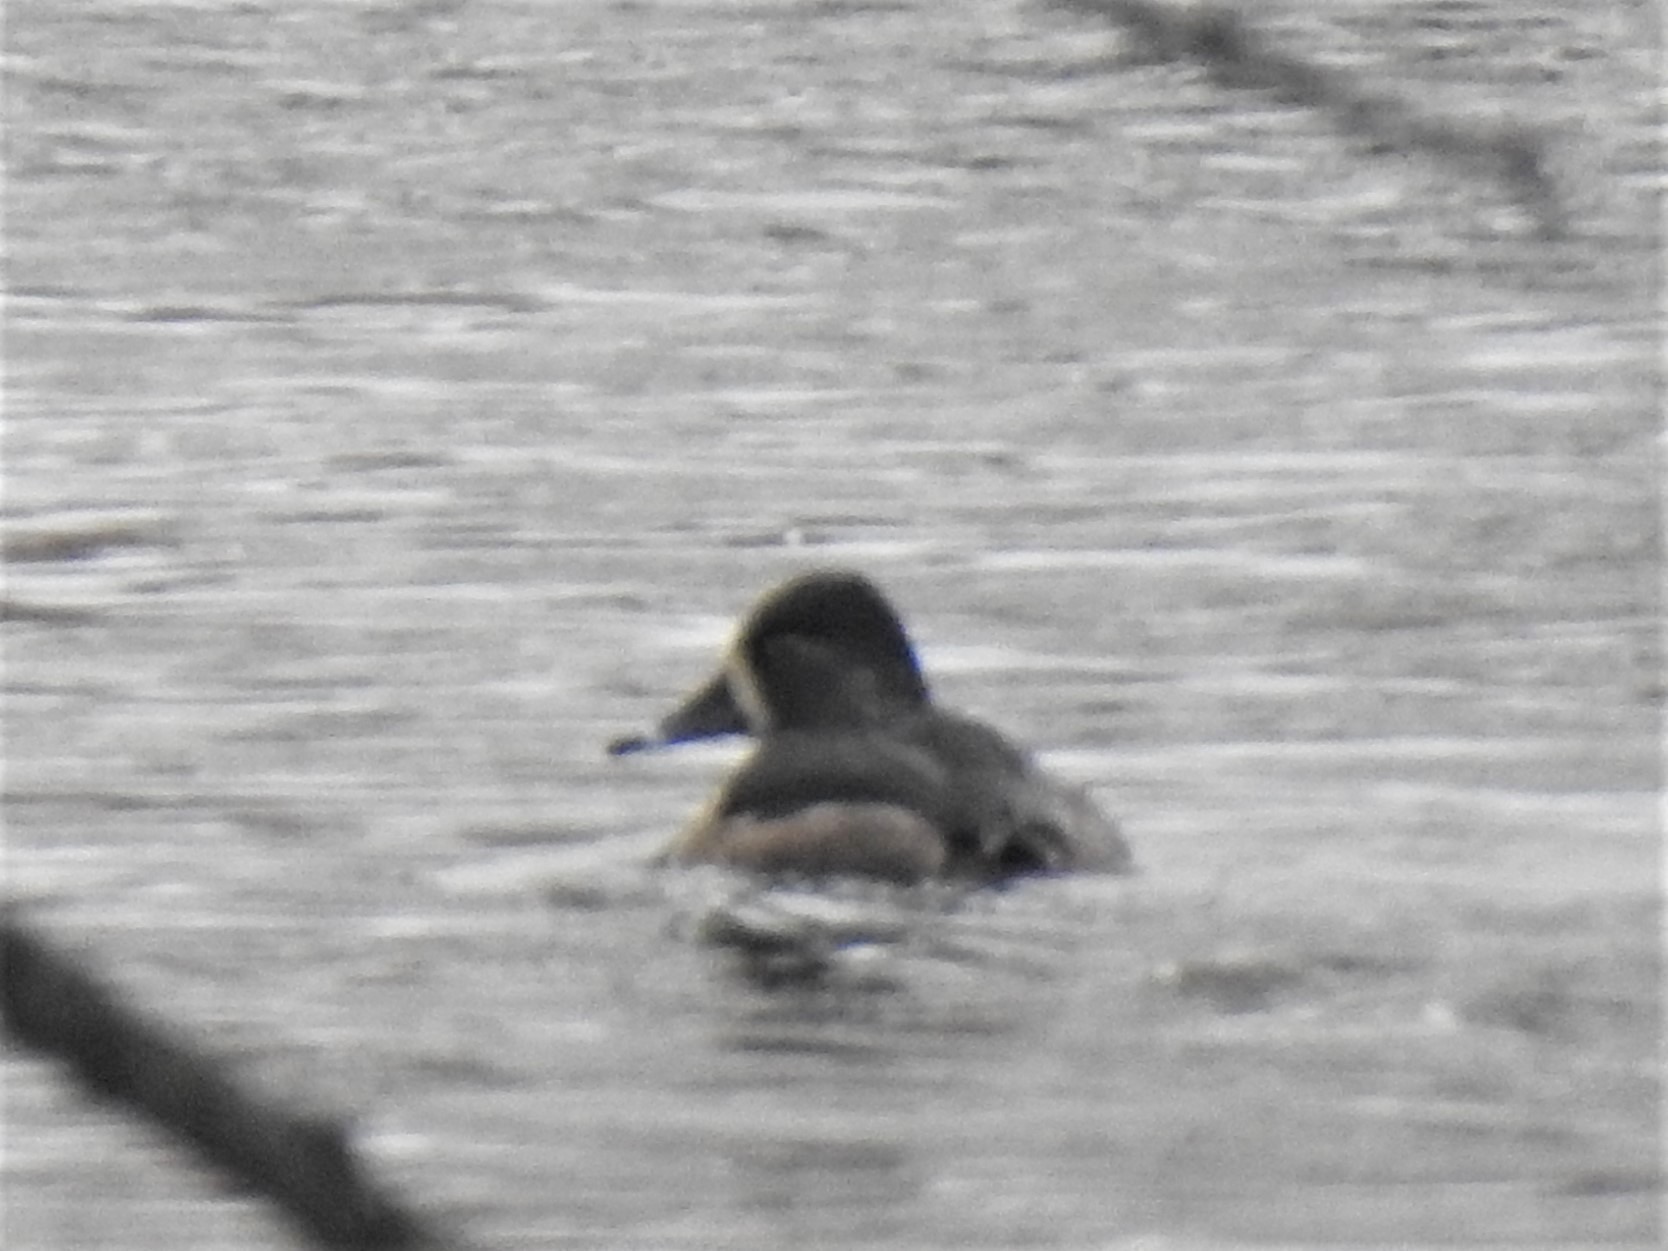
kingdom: Animalia
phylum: Chordata
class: Aves
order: Anseriformes
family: Anatidae
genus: Aythya
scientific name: Aythya collaris
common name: Ring-necked duck
